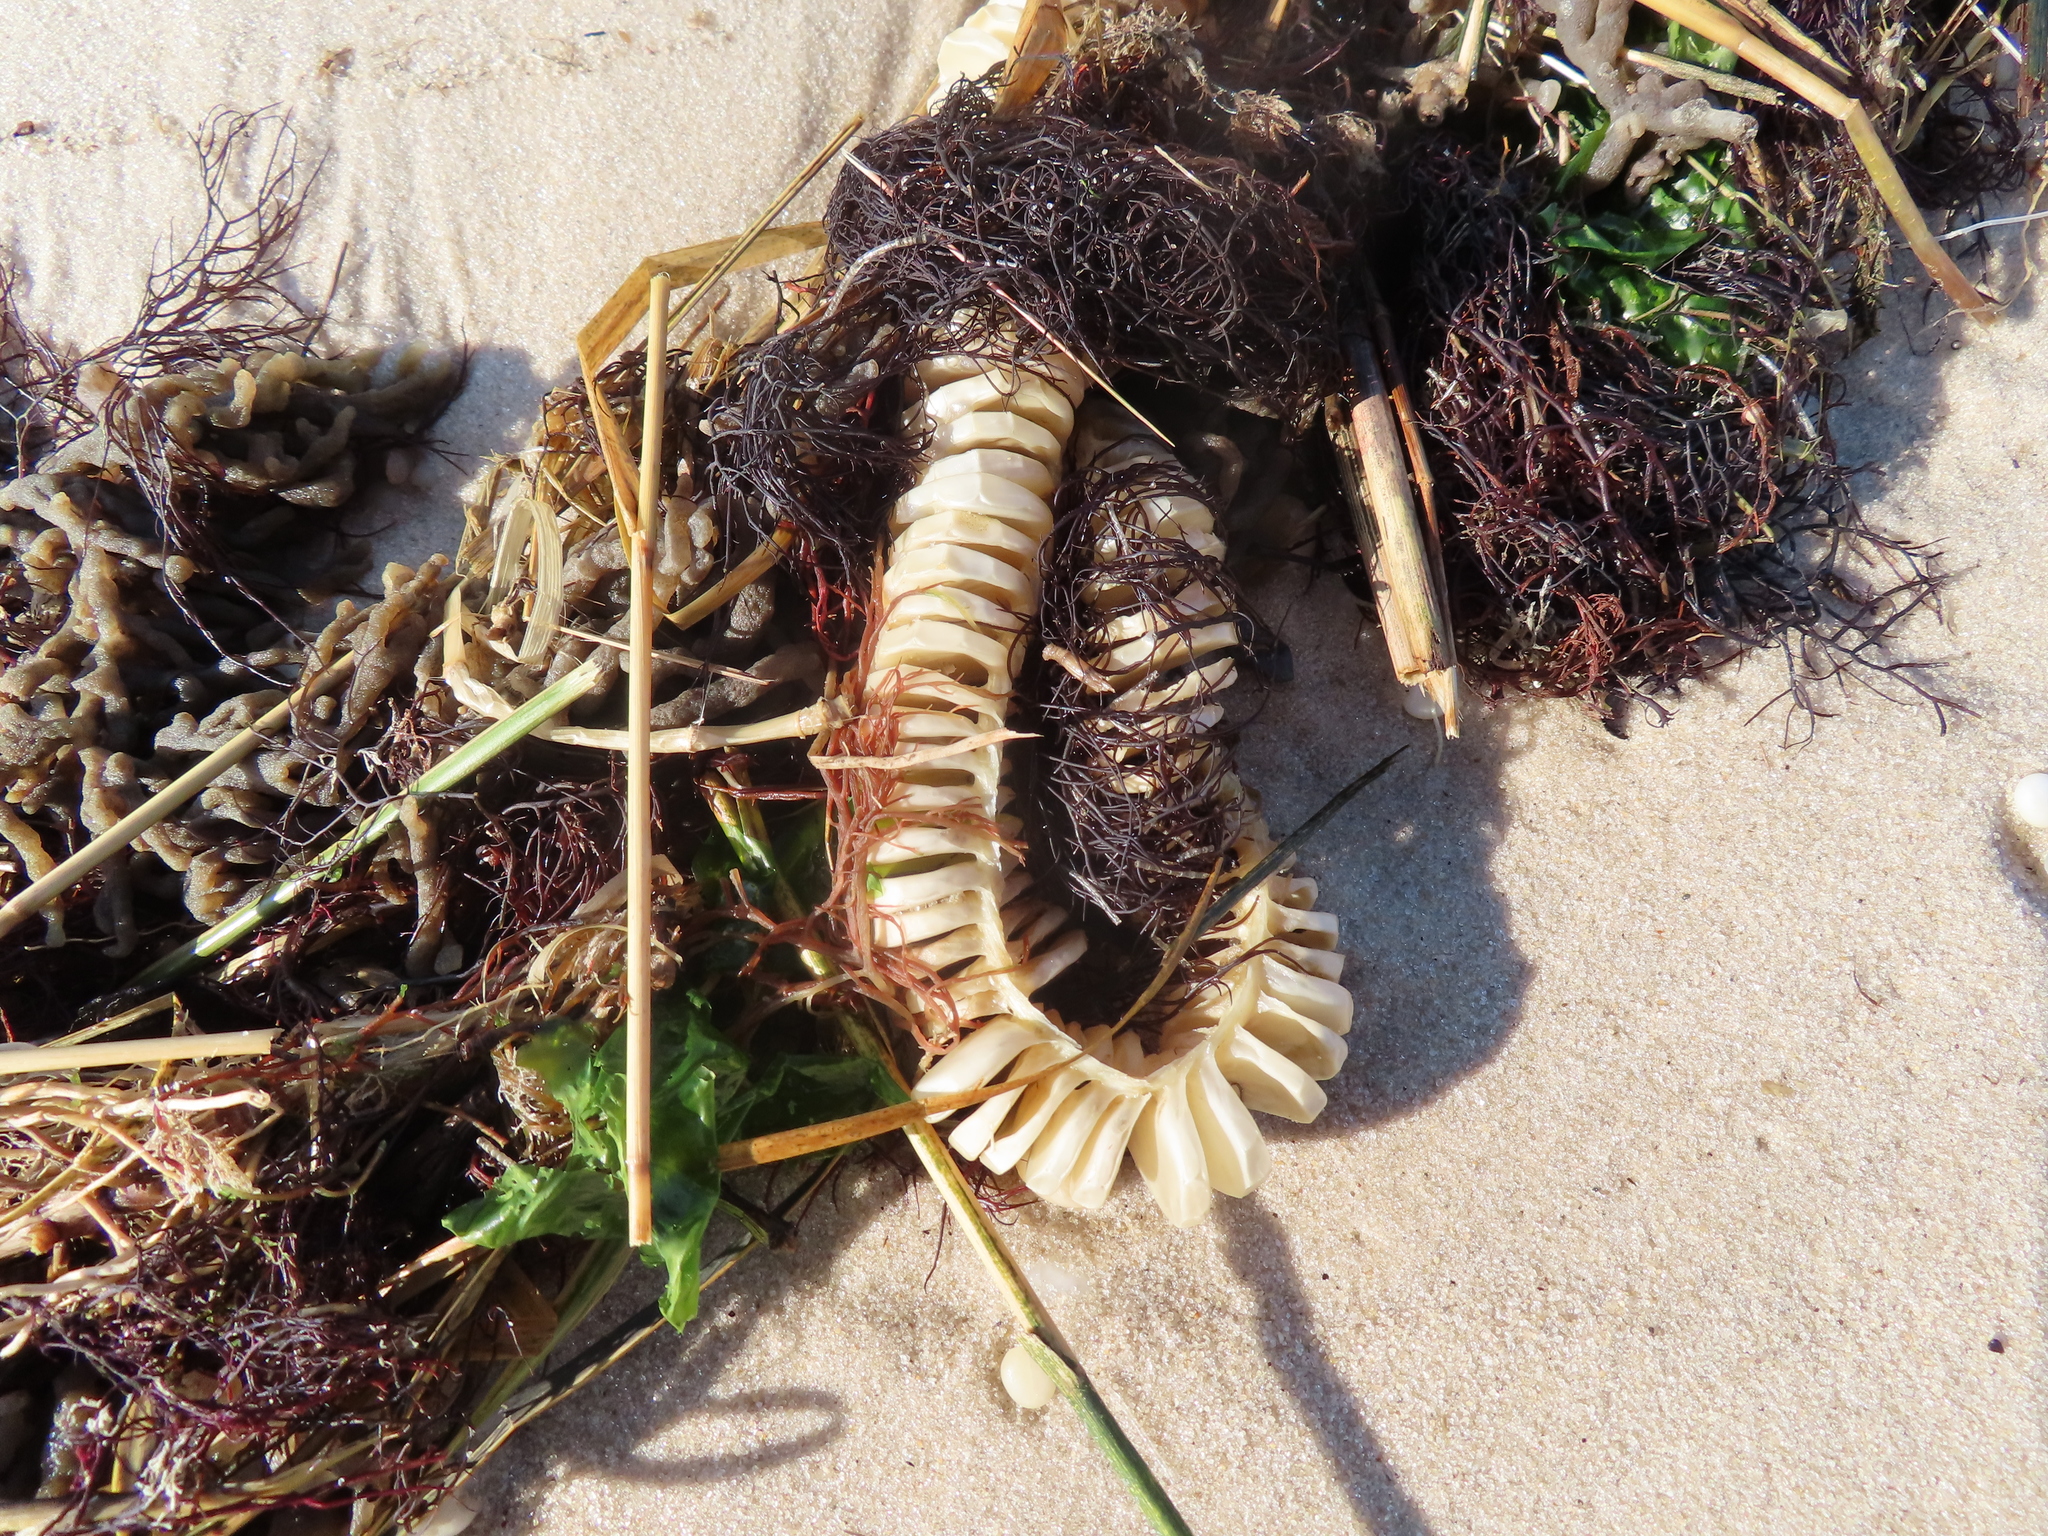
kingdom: Animalia
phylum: Mollusca
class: Gastropoda
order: Neogastropoda
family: Busyconidae
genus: Busycon
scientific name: Busycon carica
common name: Knobbed whelk
